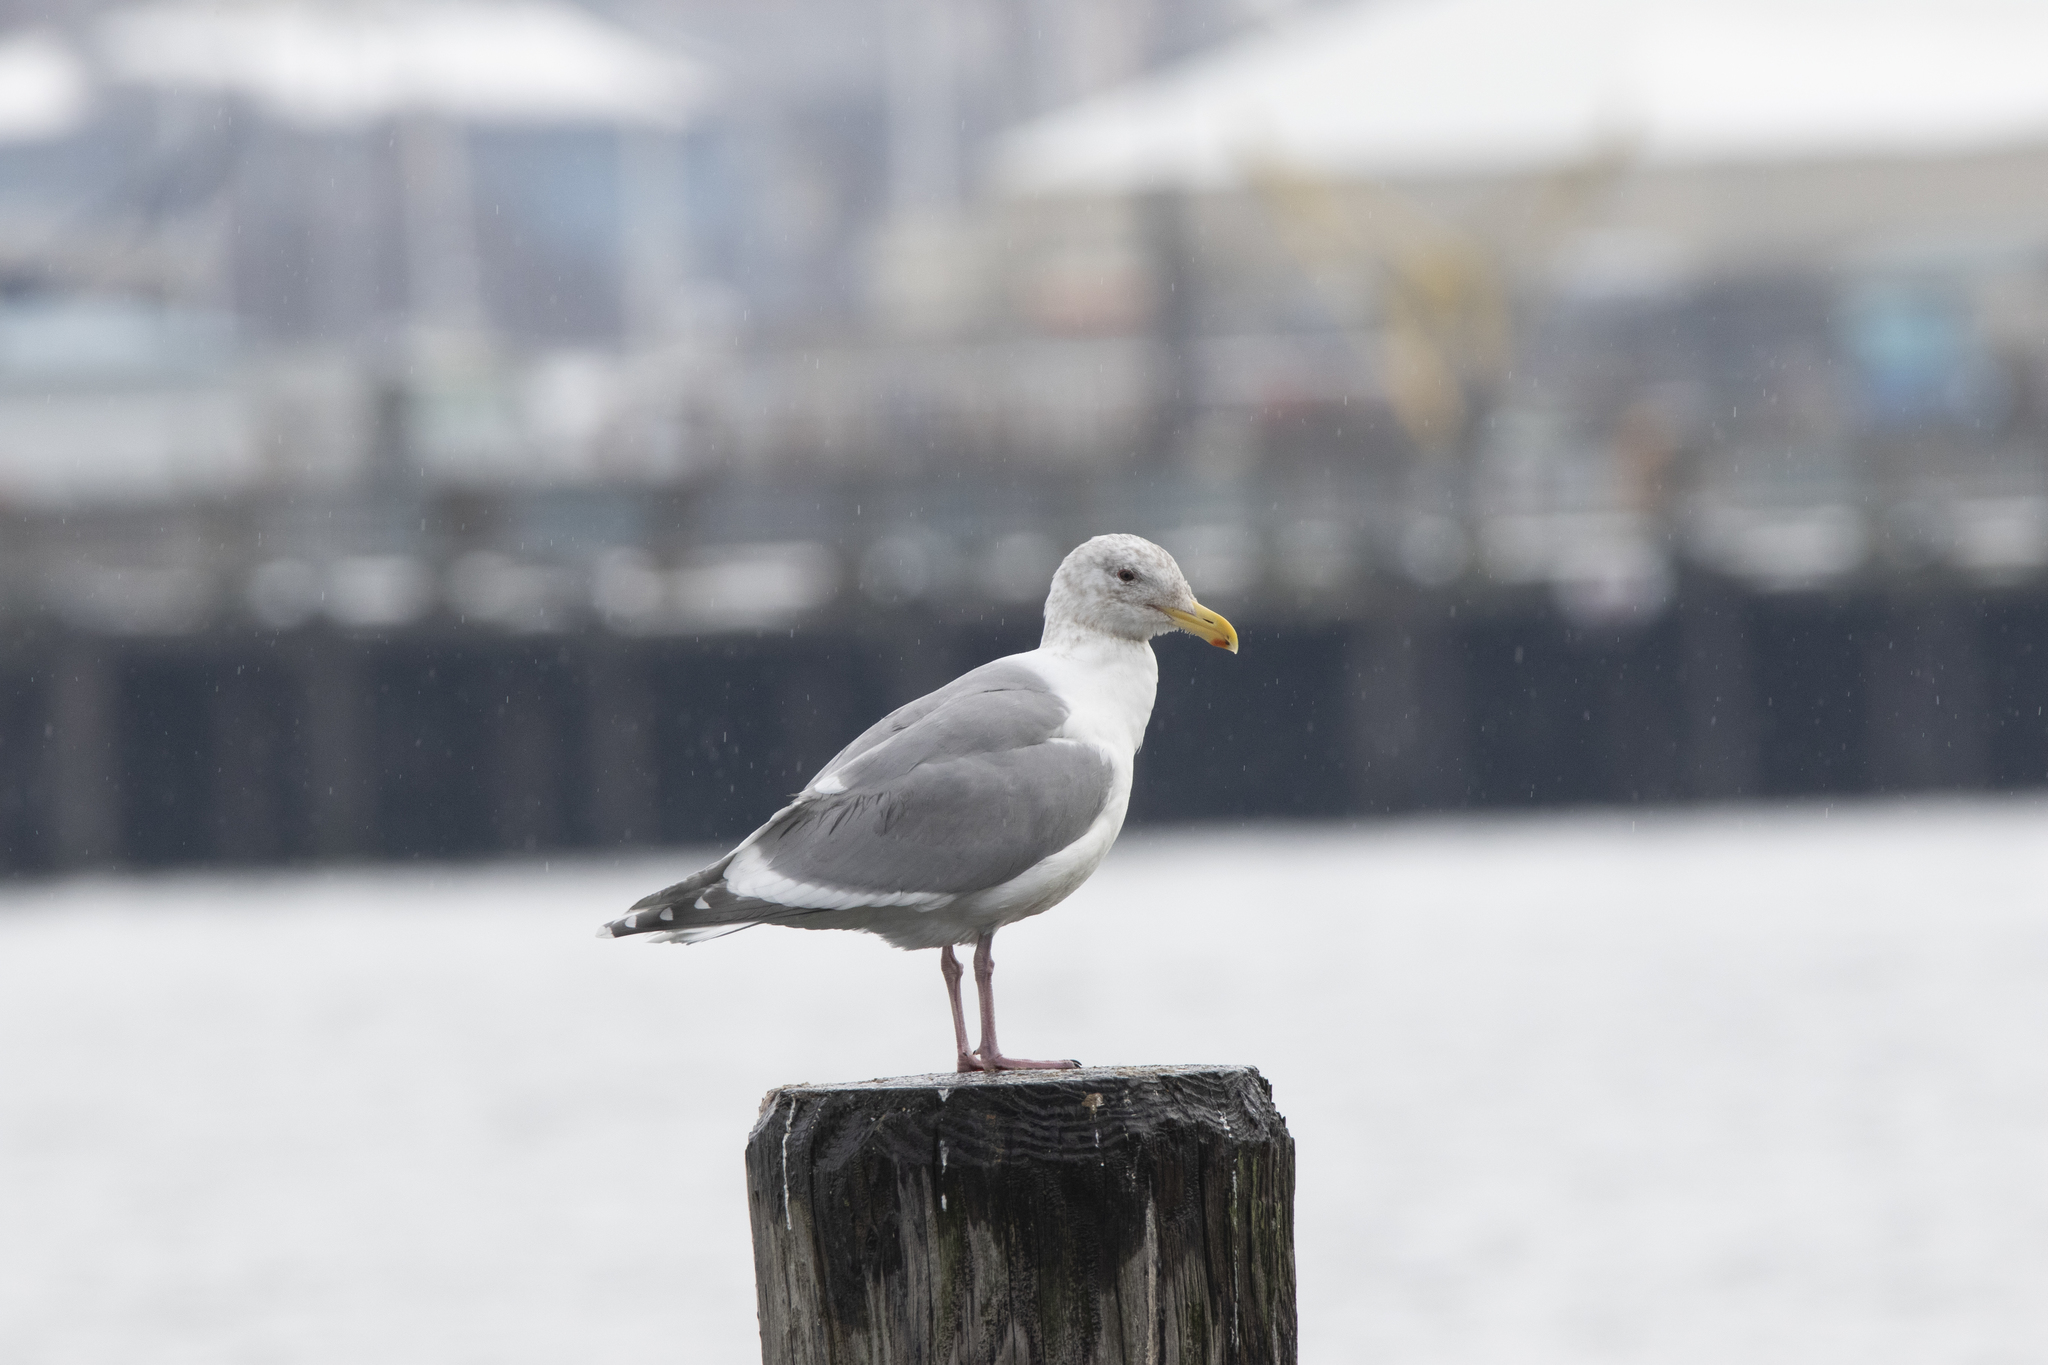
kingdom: Animalia
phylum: Chordata
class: Aves
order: Charadriiformes
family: Laridae
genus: Larus
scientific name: Larus
